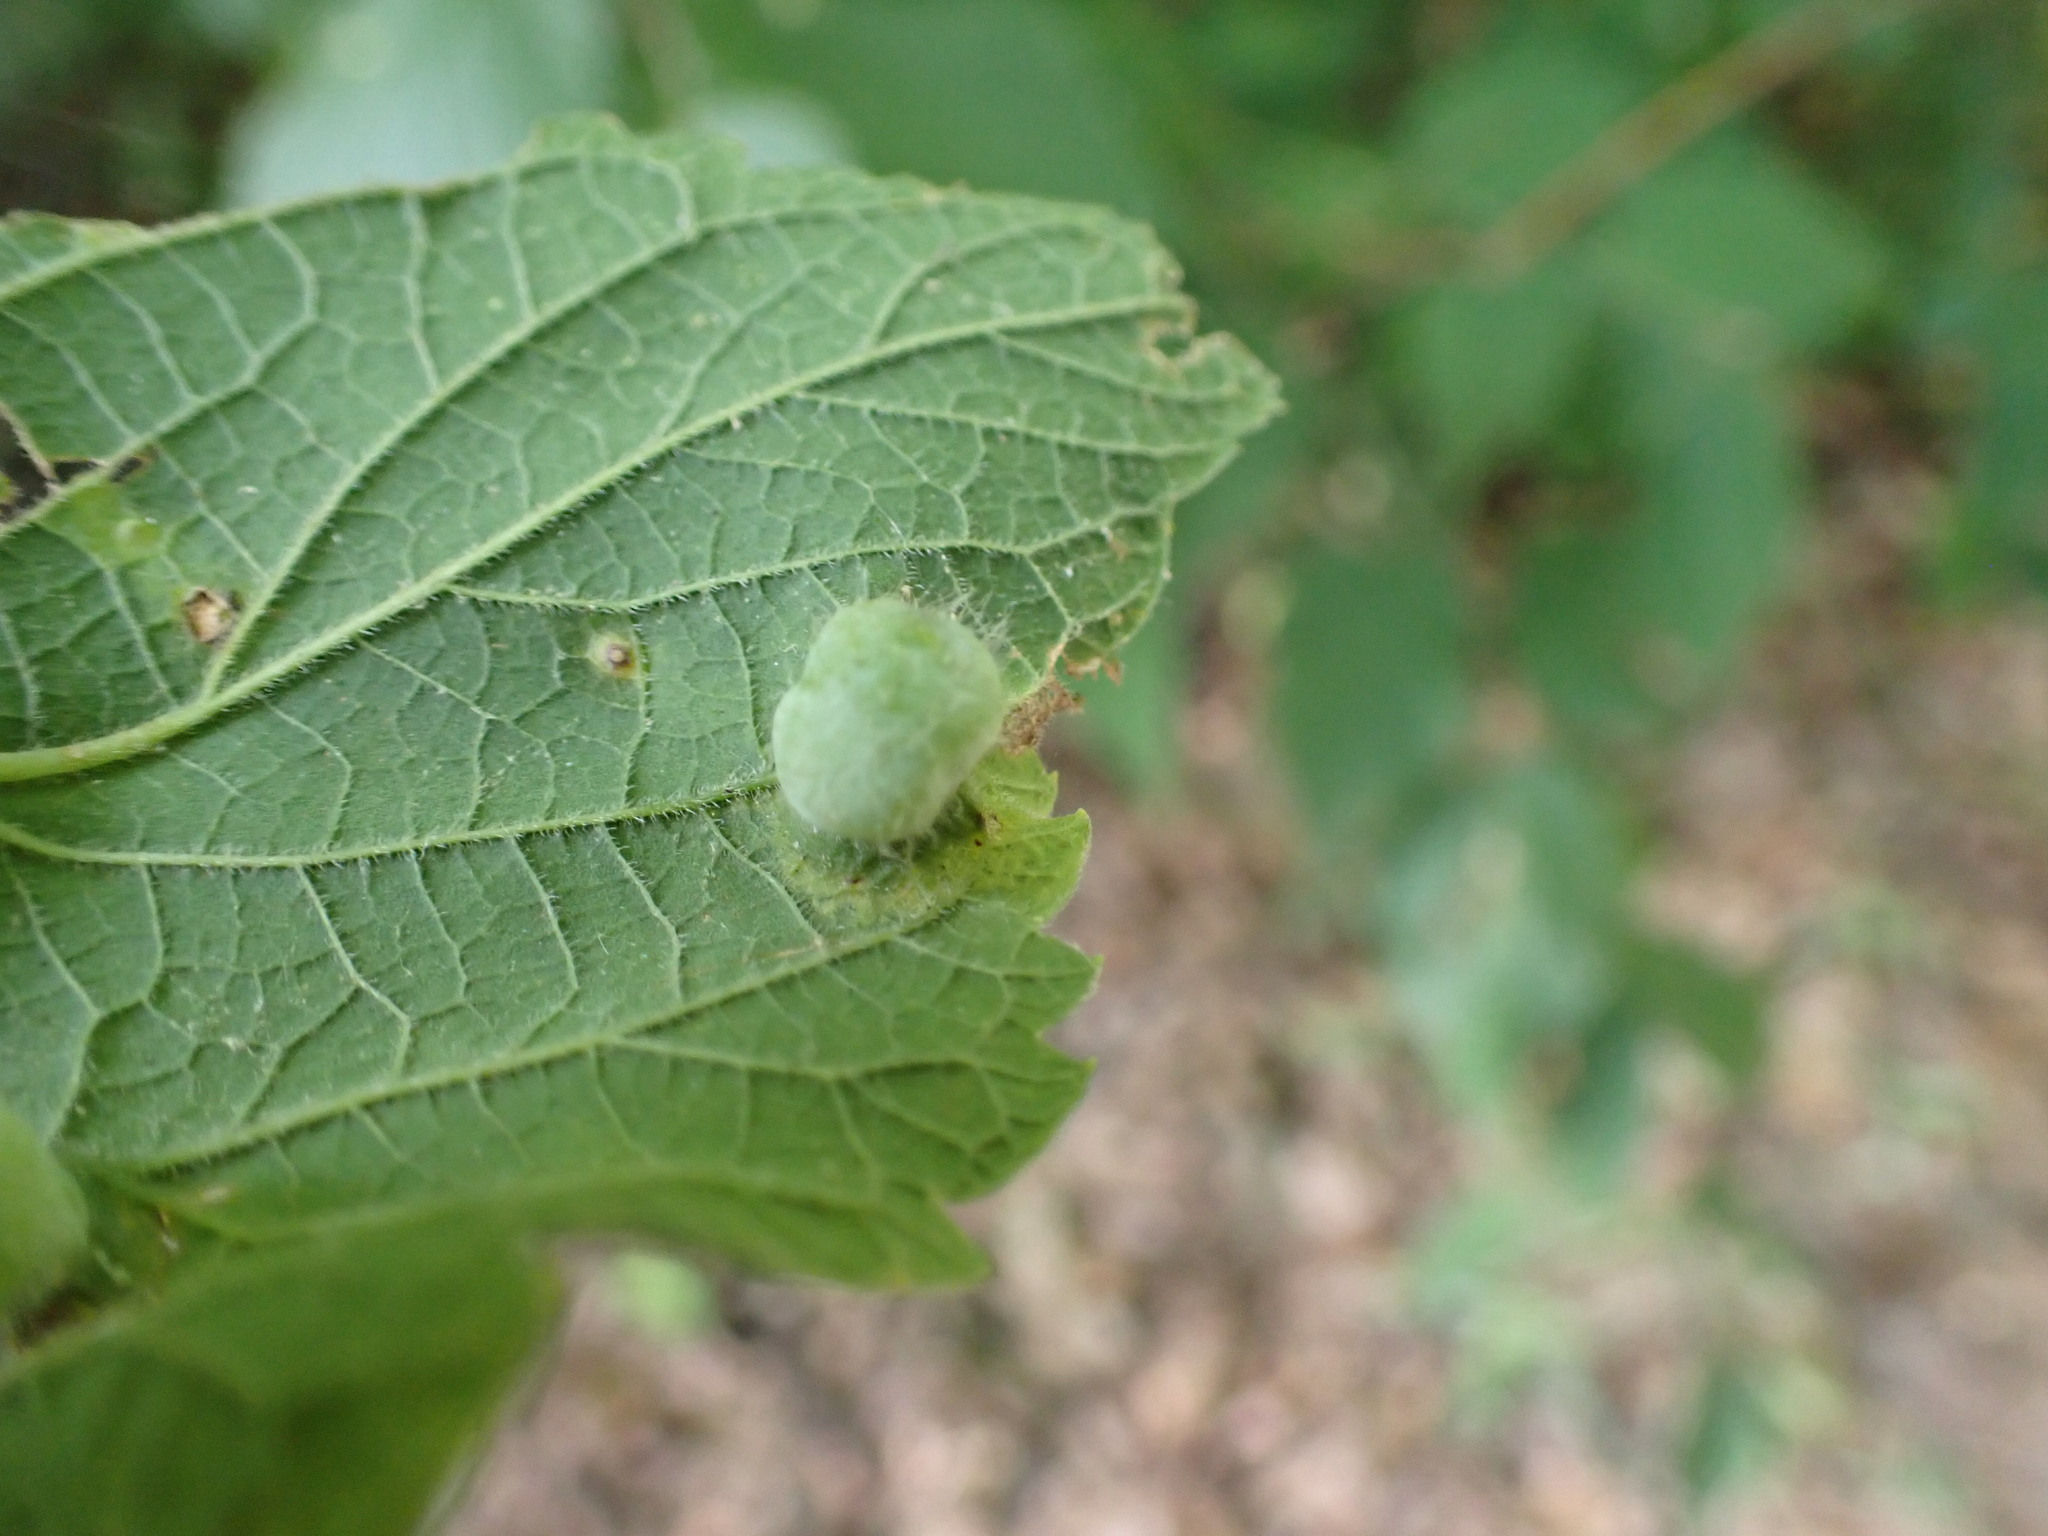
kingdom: Animalia
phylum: Arthropoda
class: Insecta
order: Hemiptera
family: Aphalaridae
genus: Pachypsylla
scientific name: Pachypsylla celtidismamma
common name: Hackberry nipplegall psyllid
